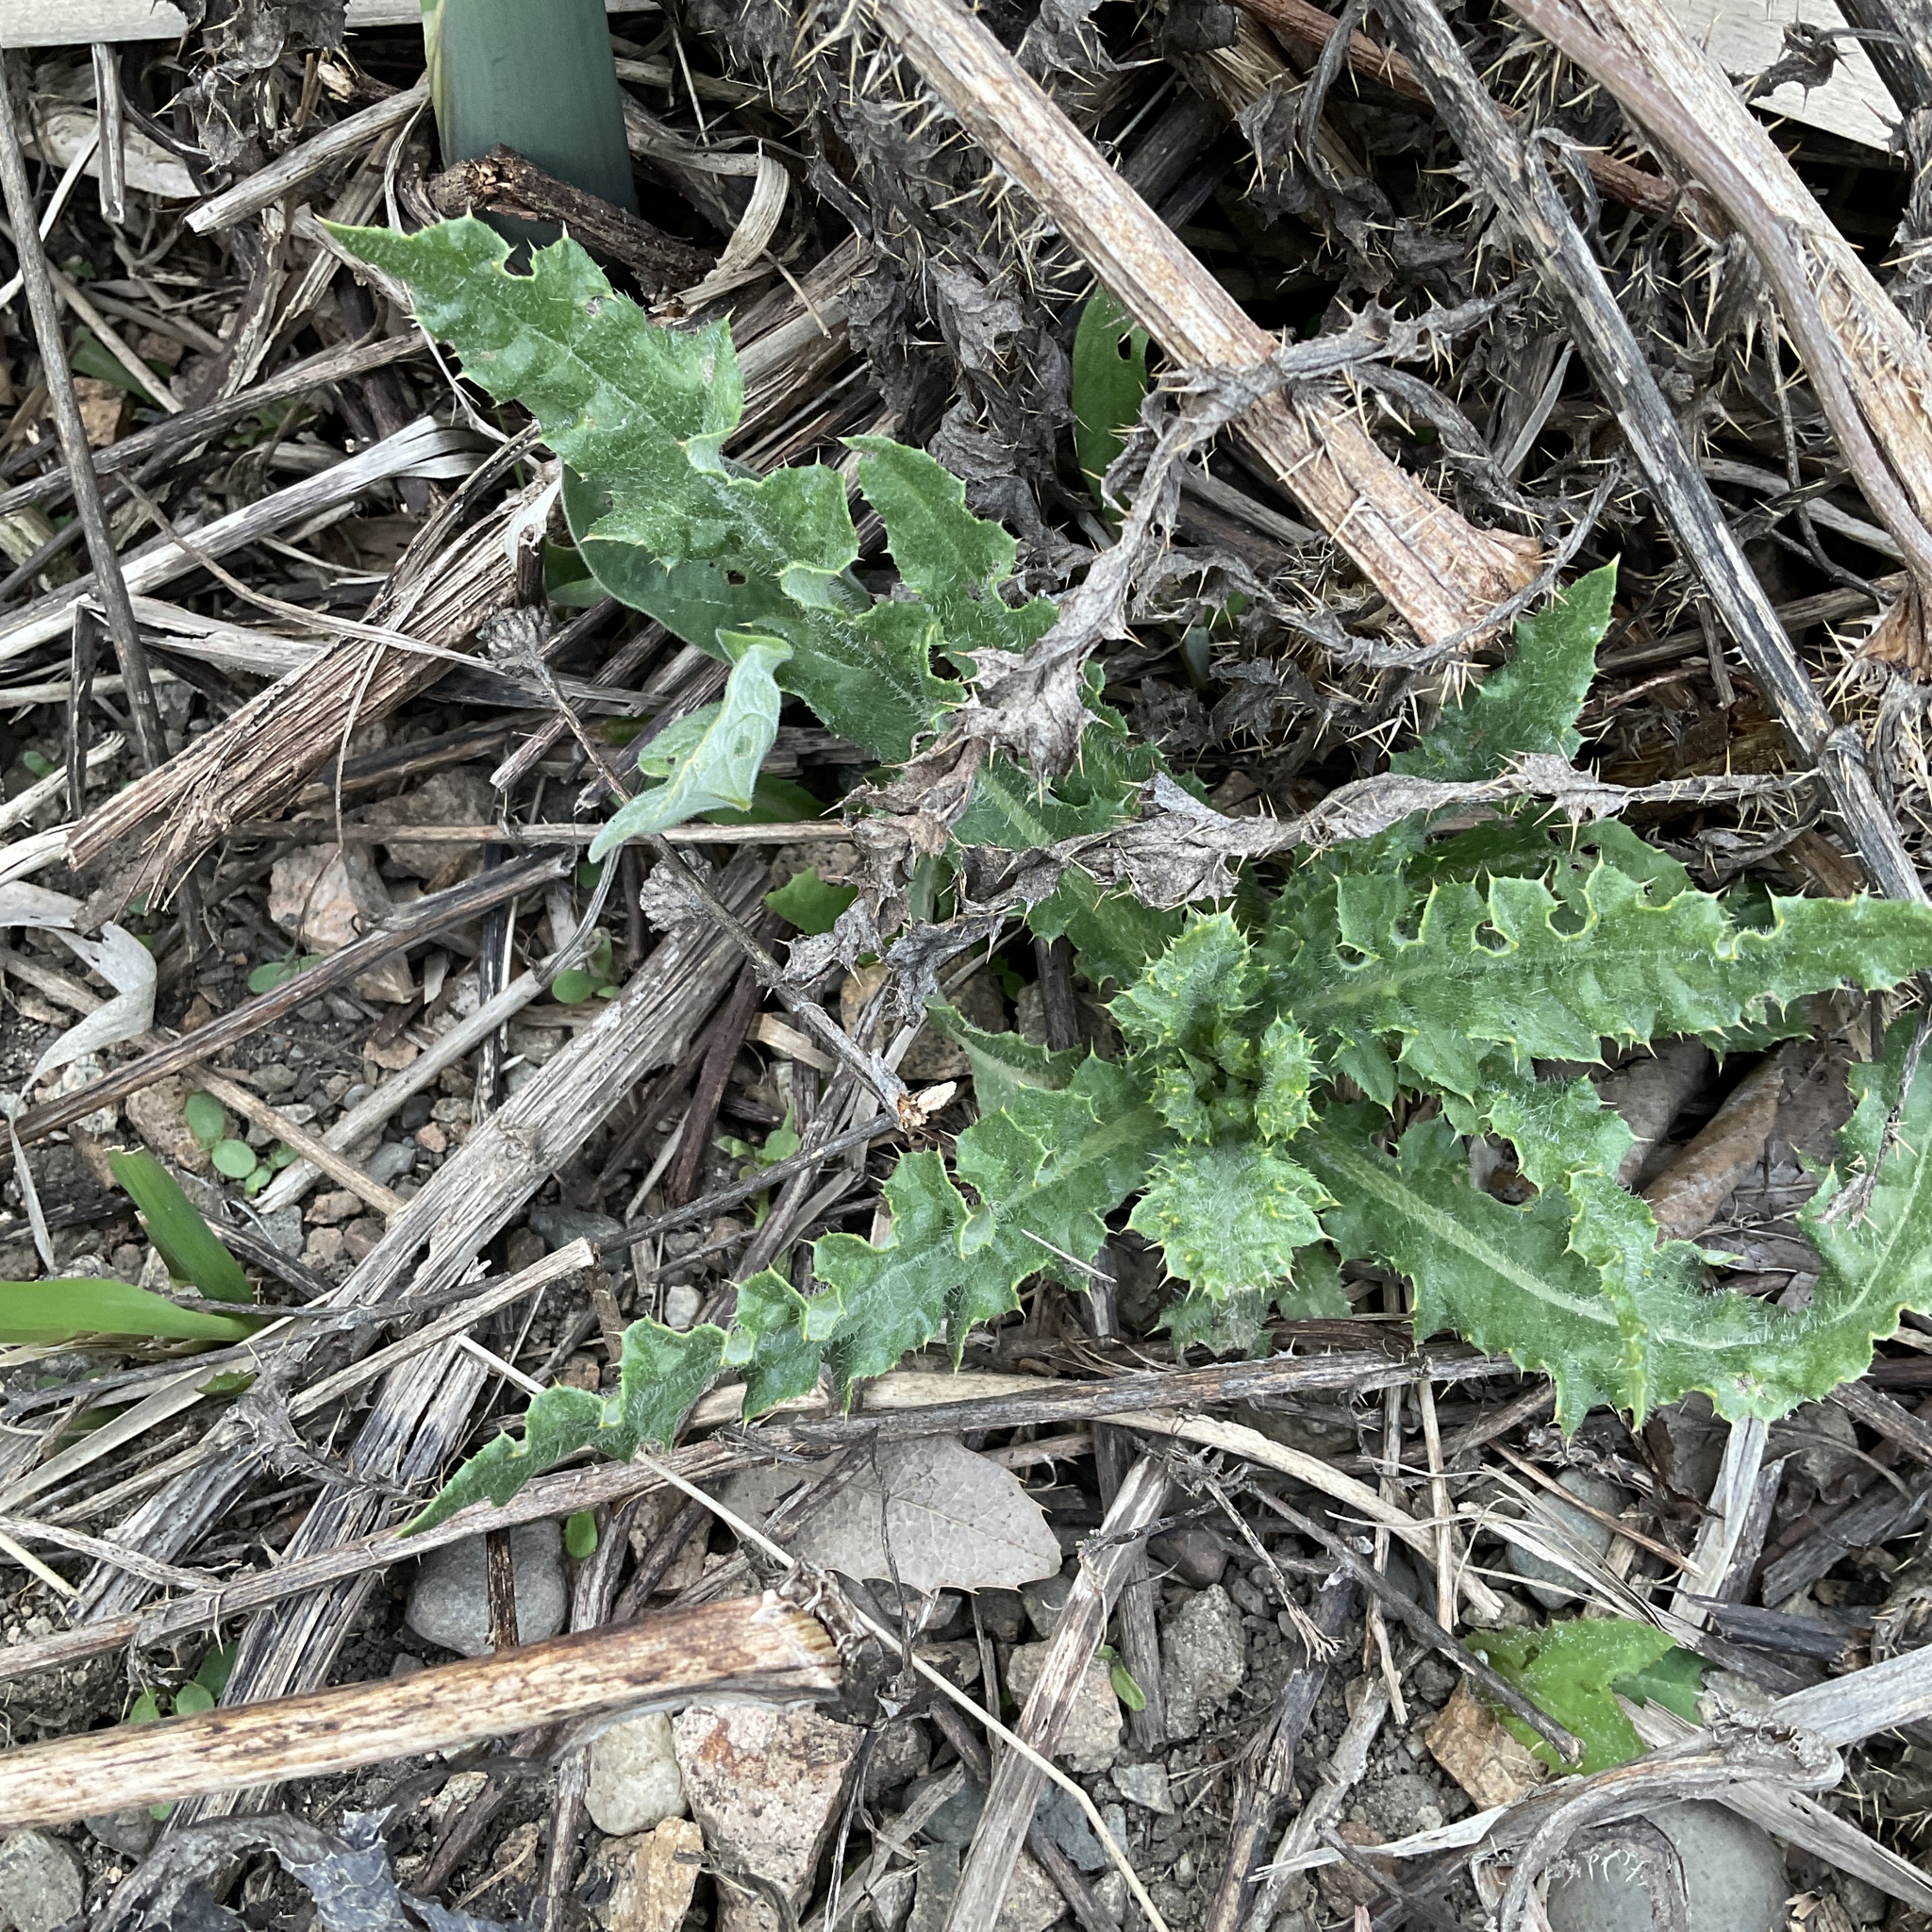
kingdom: Plantae
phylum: Tracheophyta
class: Magnoliopsida
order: Asterales
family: Asteraceae
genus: Cirsium
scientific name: Cirsium arvense
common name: Creeping thistle
